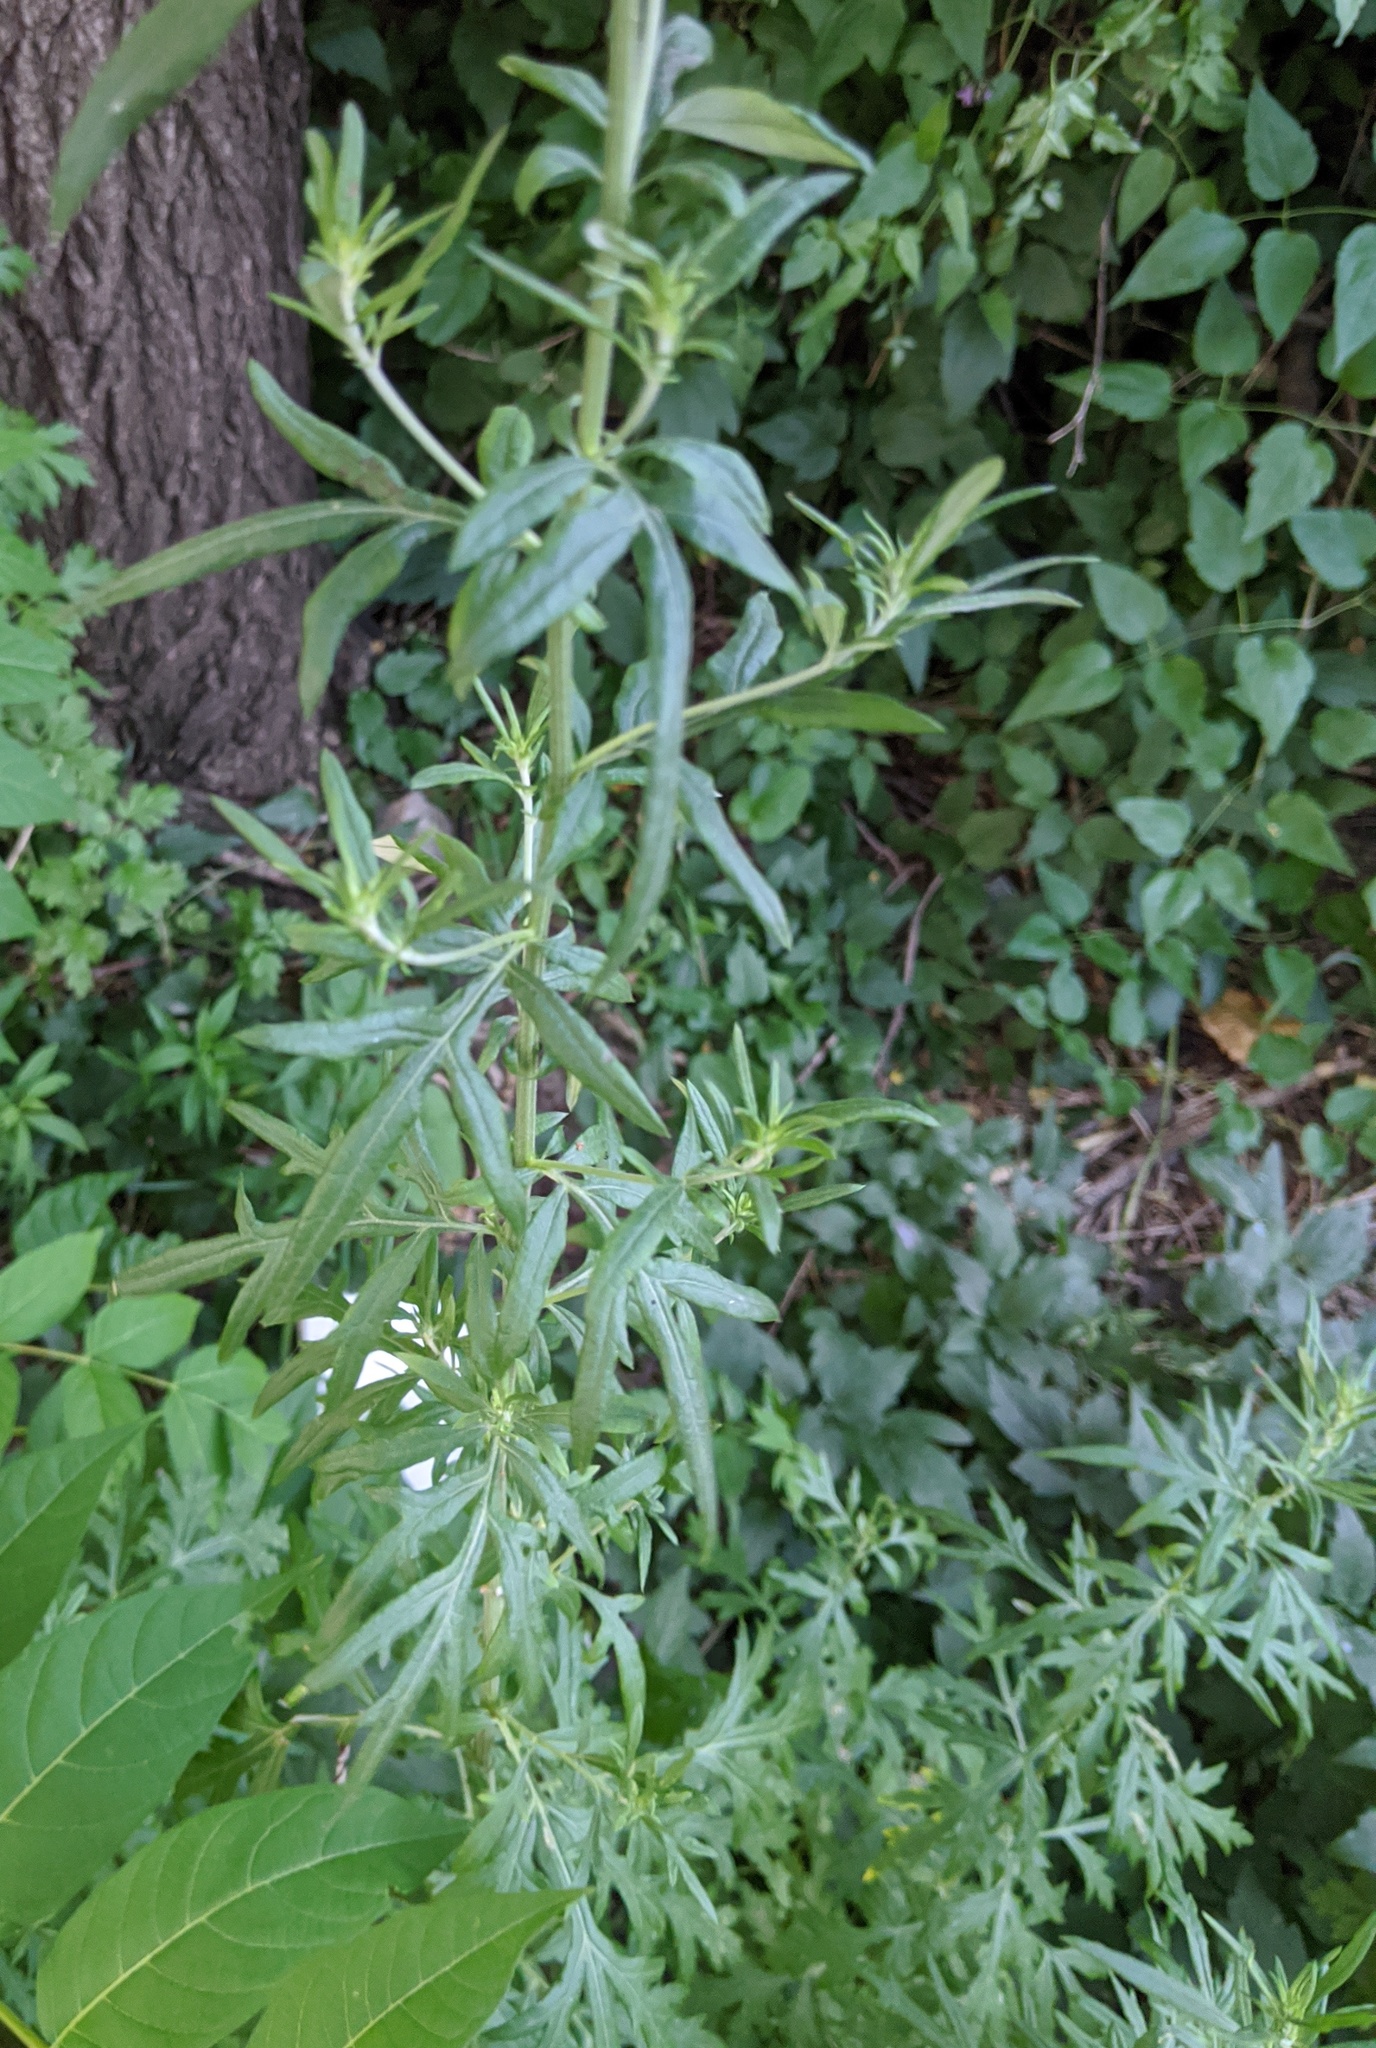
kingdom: Plantae
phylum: Tracheophyta
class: Magnoliopsida
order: Asterales
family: Asteraceae
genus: Artemisia
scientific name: Artemisia vulgaris
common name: Mugwort
